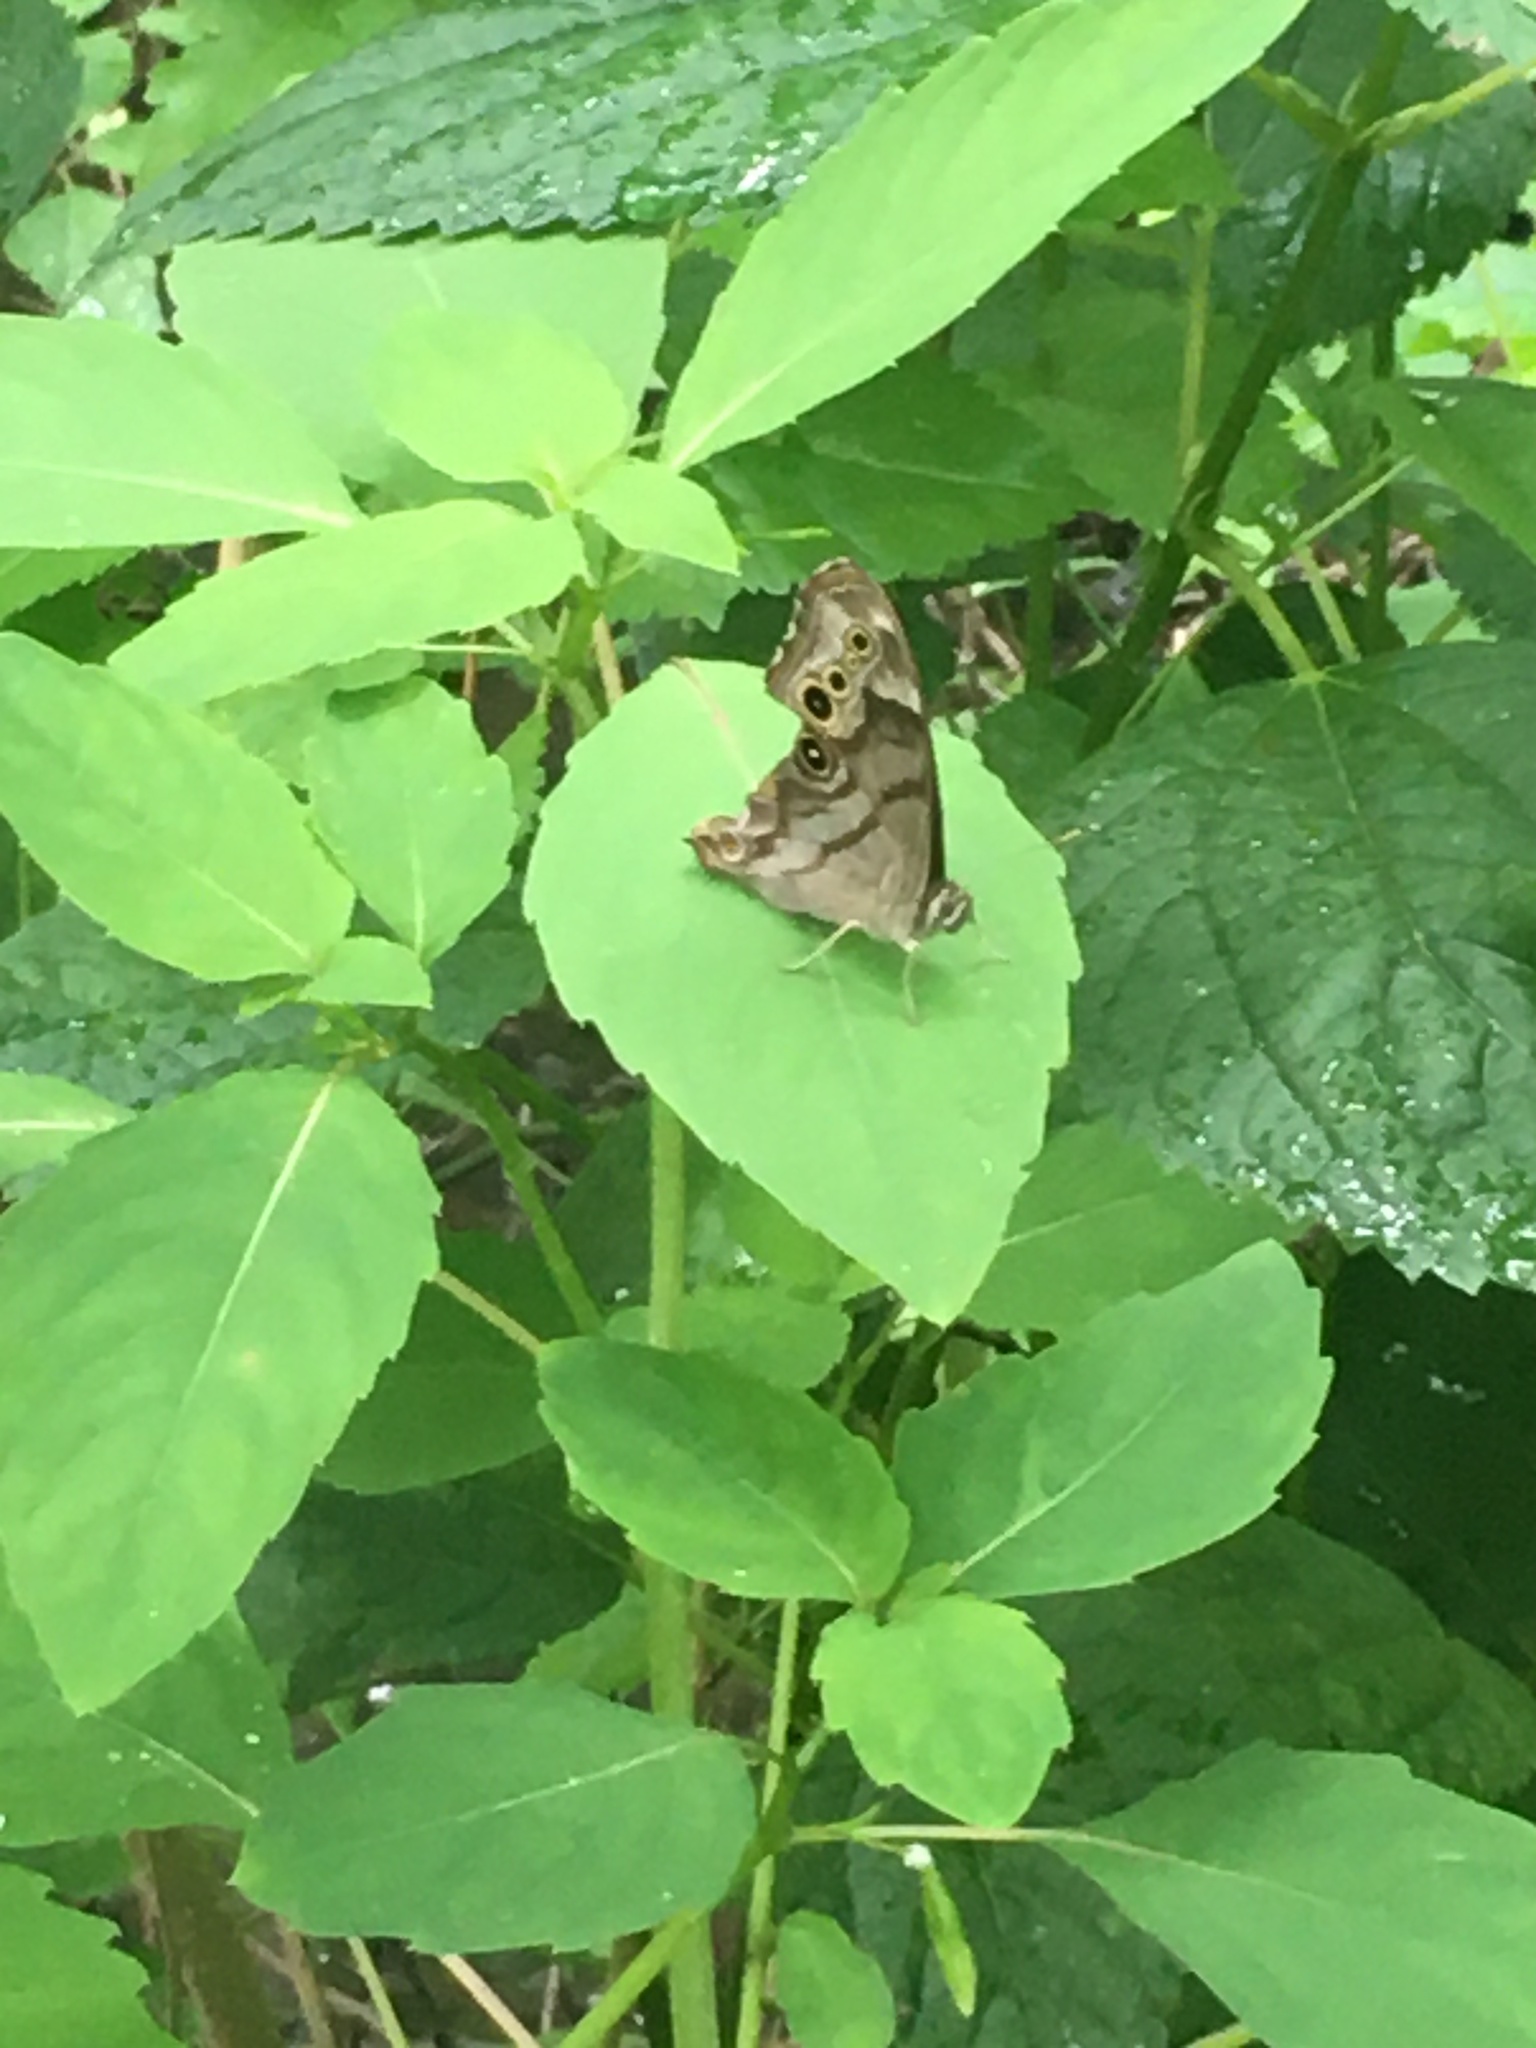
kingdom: Animalia
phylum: Arthropoda
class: Insecta
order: Lepidoptera
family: Nymphalidae
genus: Lethe
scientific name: Lethe anthedon
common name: Northern pearly-eye
